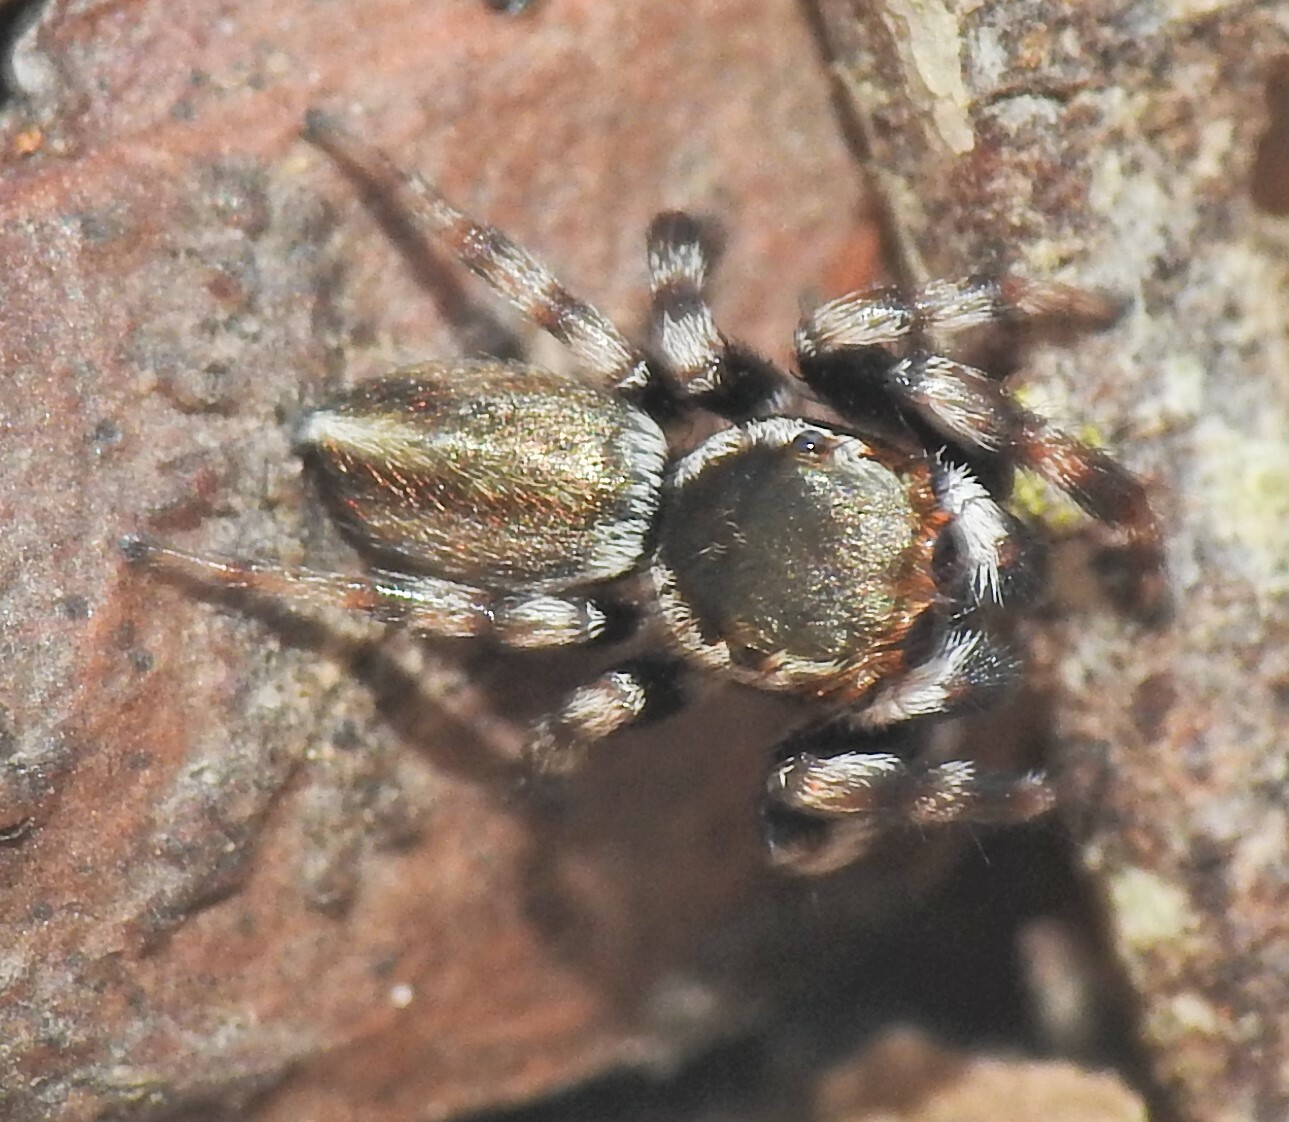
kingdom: Animalia
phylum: Arthropoda
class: Arachnida
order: Araneae
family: Salticidae
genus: Maratus
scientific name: Maratus scutulatus
